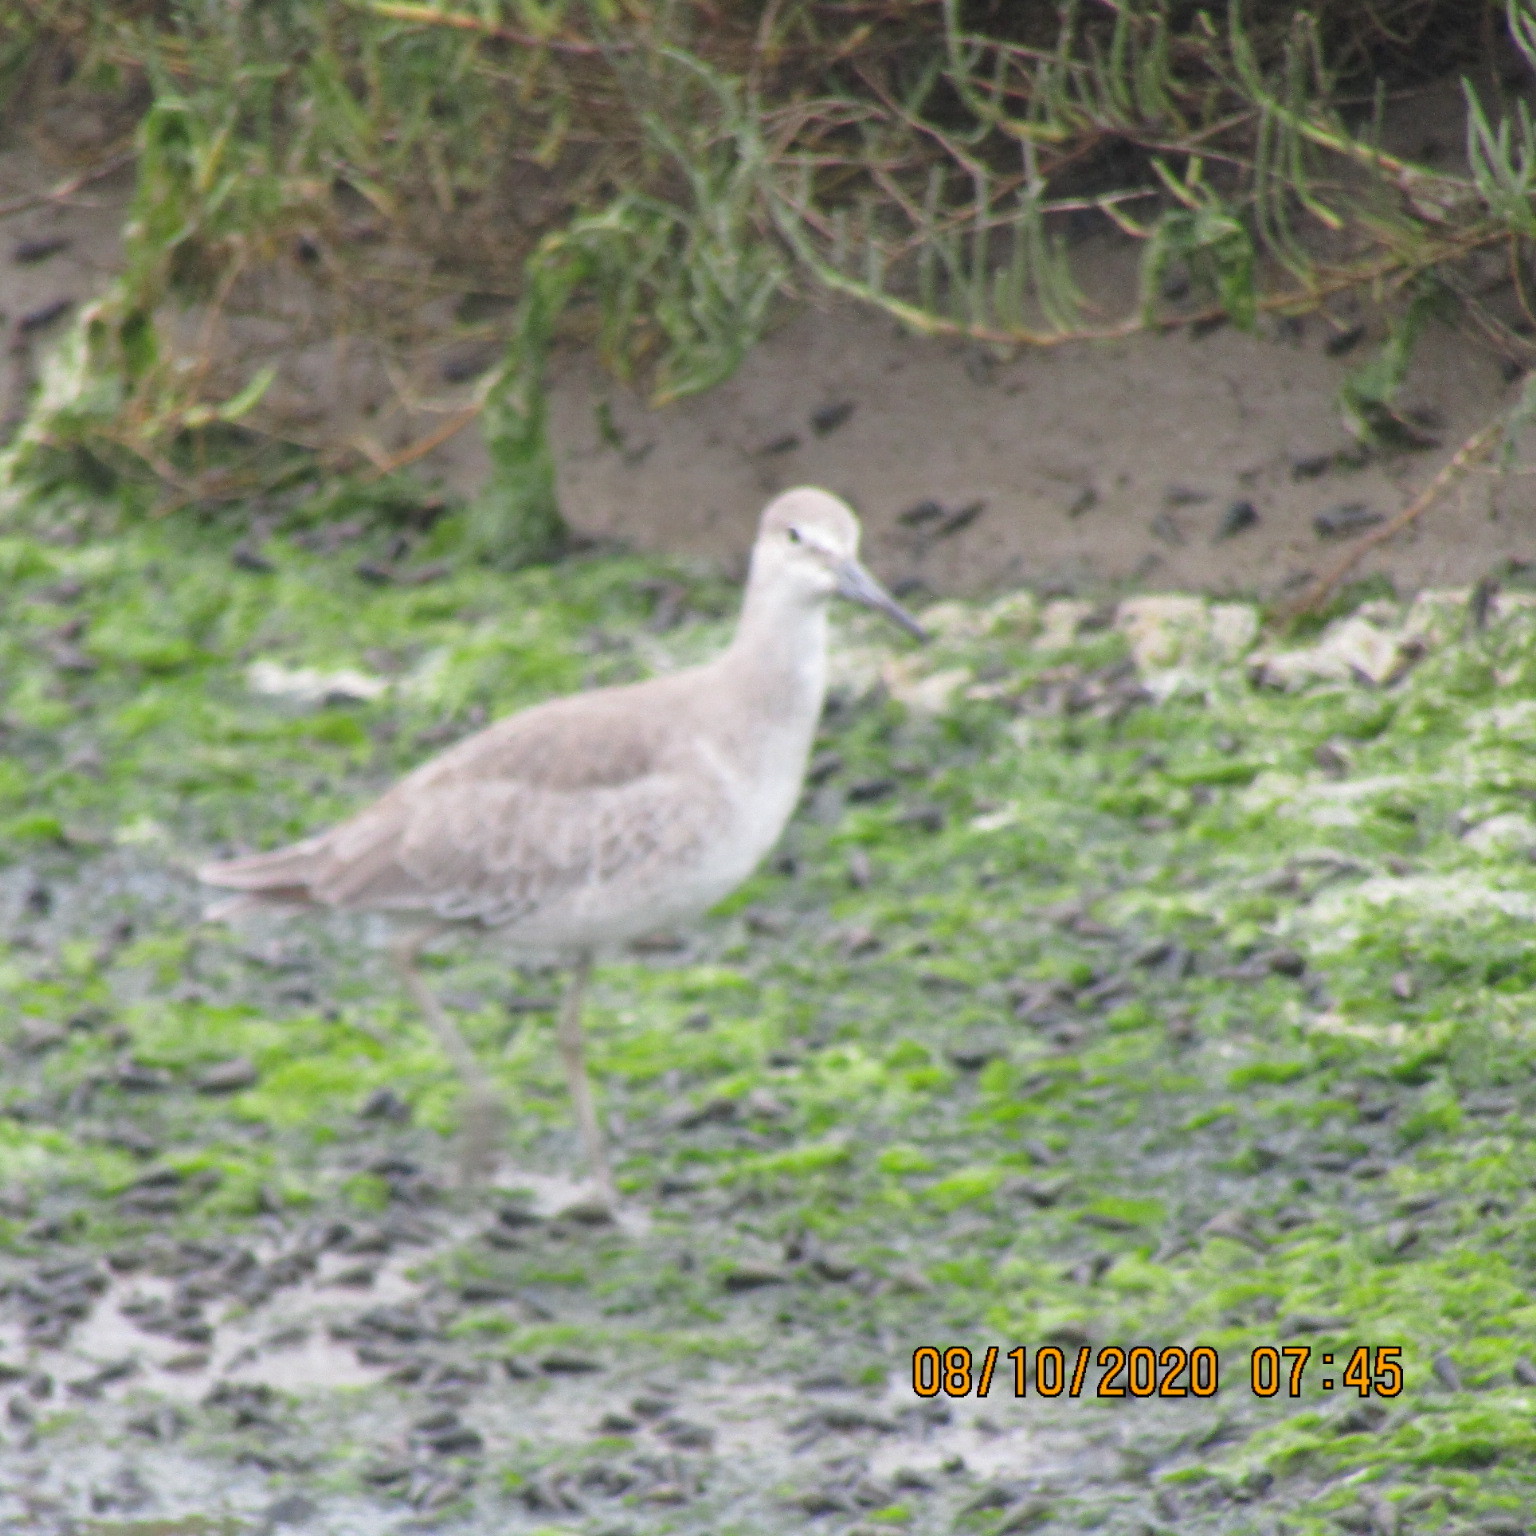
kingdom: Animalia
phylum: Chordata
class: Aves
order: Charadriiformes
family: Scolopacidae
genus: Tringa
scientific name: Tringa semipalmata
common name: Willet
